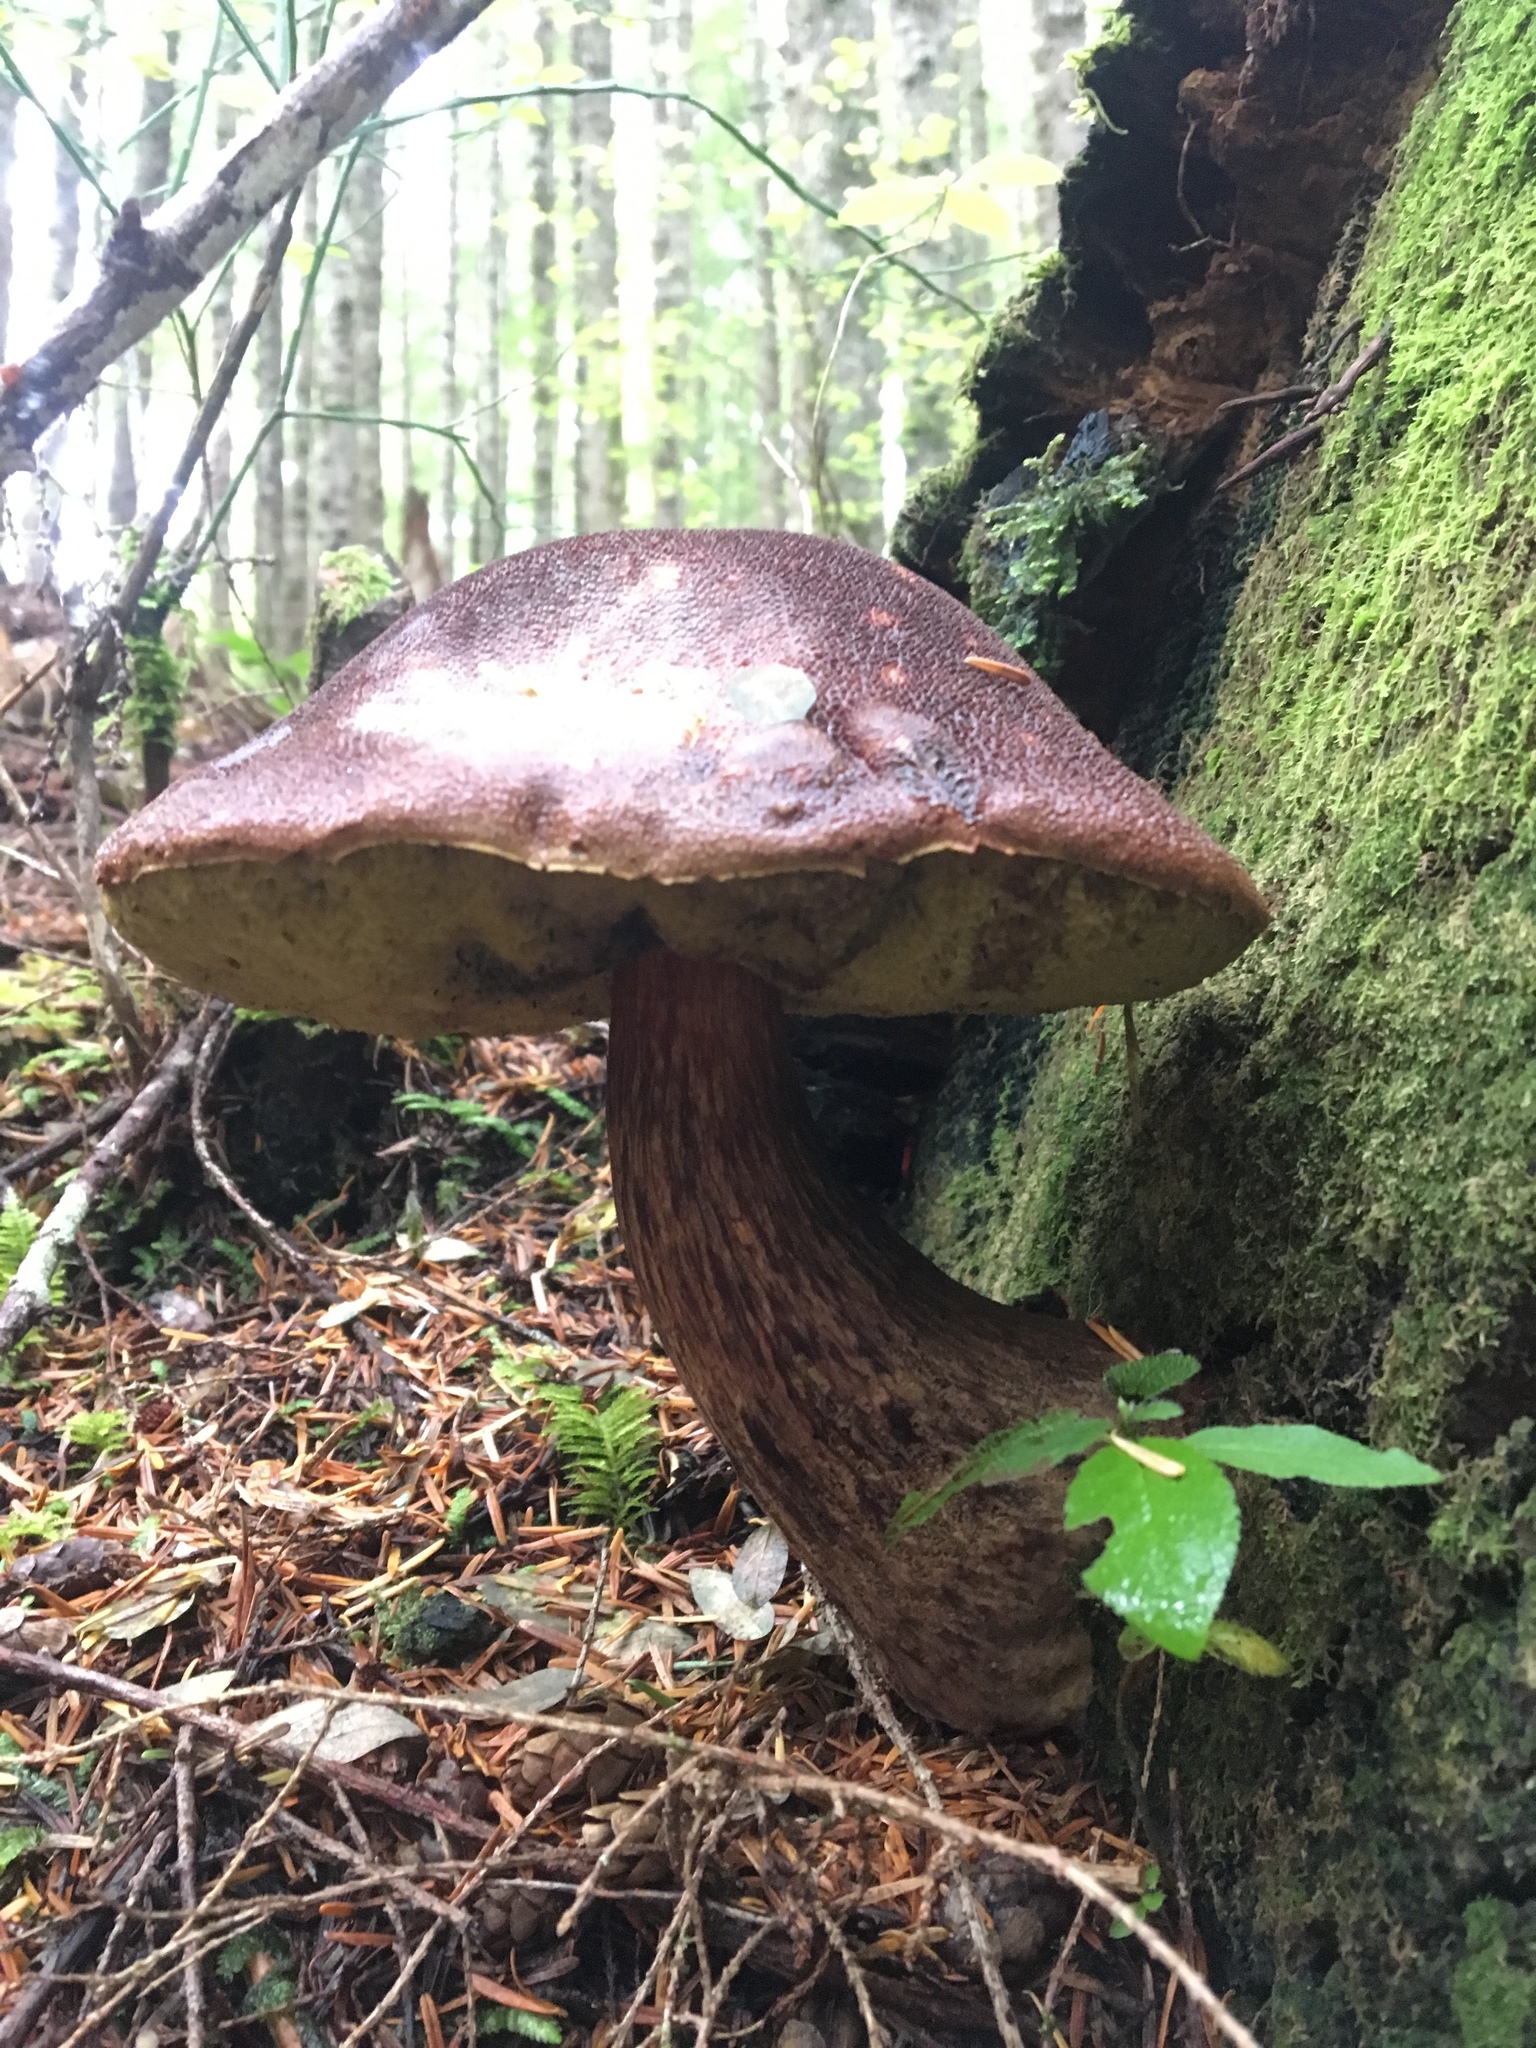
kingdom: Fungi
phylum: Basidiomycota
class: Agaricomycetes
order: Boletales
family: Boletaceae
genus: Aureoboletus
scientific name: Aureoboletus mirabilis
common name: Admirable bolete
